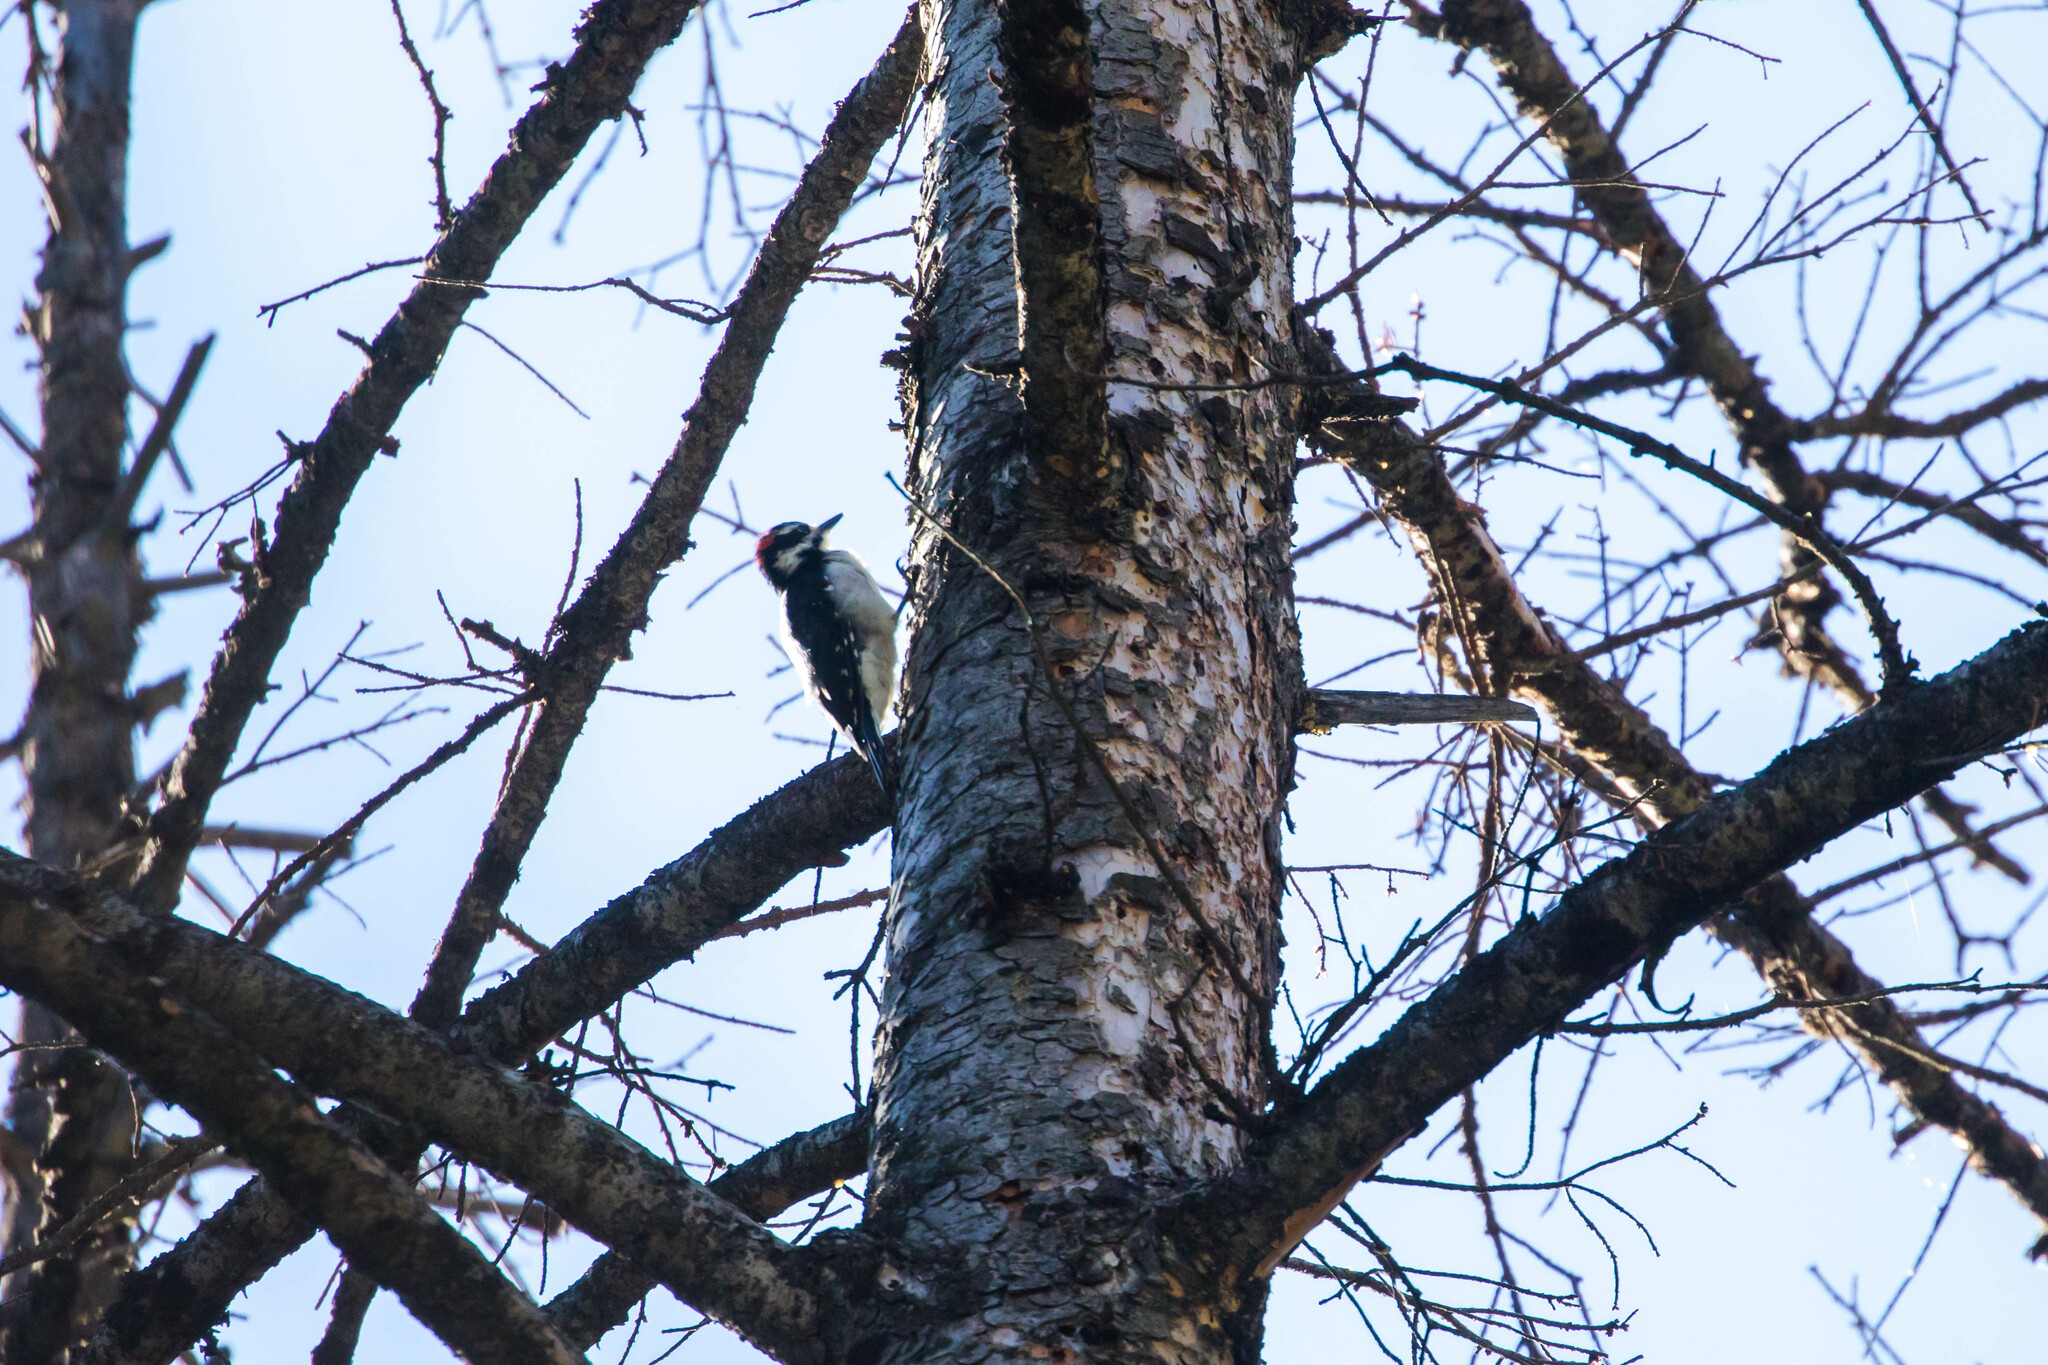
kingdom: Animalia
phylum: Chordata
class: Aves
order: Piciformes
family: Picidae
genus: Leuconotopicus
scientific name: Leuconotopicus villosus
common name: Hairy woodpecker
